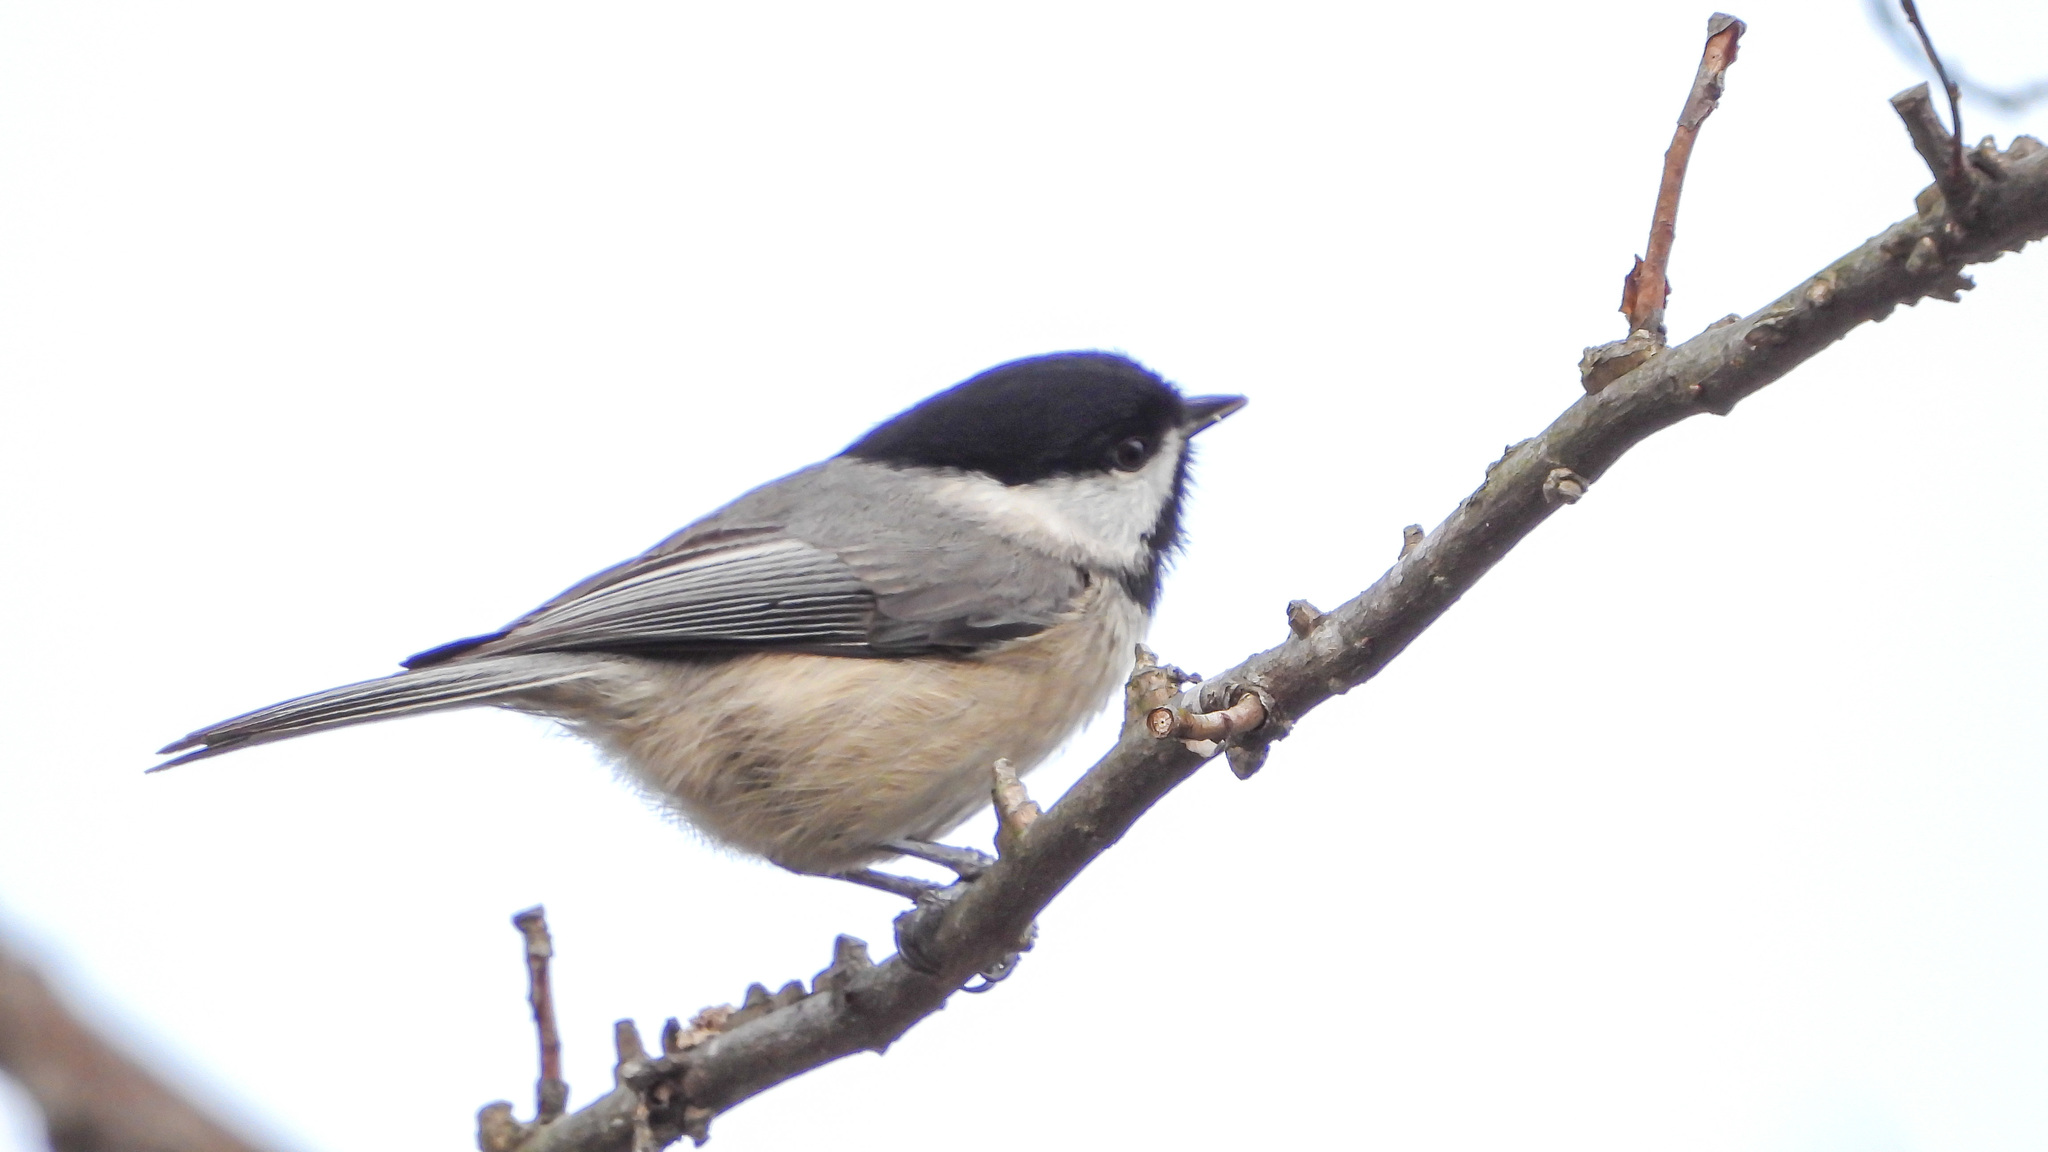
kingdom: Animalia
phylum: Chordata
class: Aves
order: Passeriformes
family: Paridae
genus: Poecile
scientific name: Poecile carolinensis
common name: Carolina chickadee
